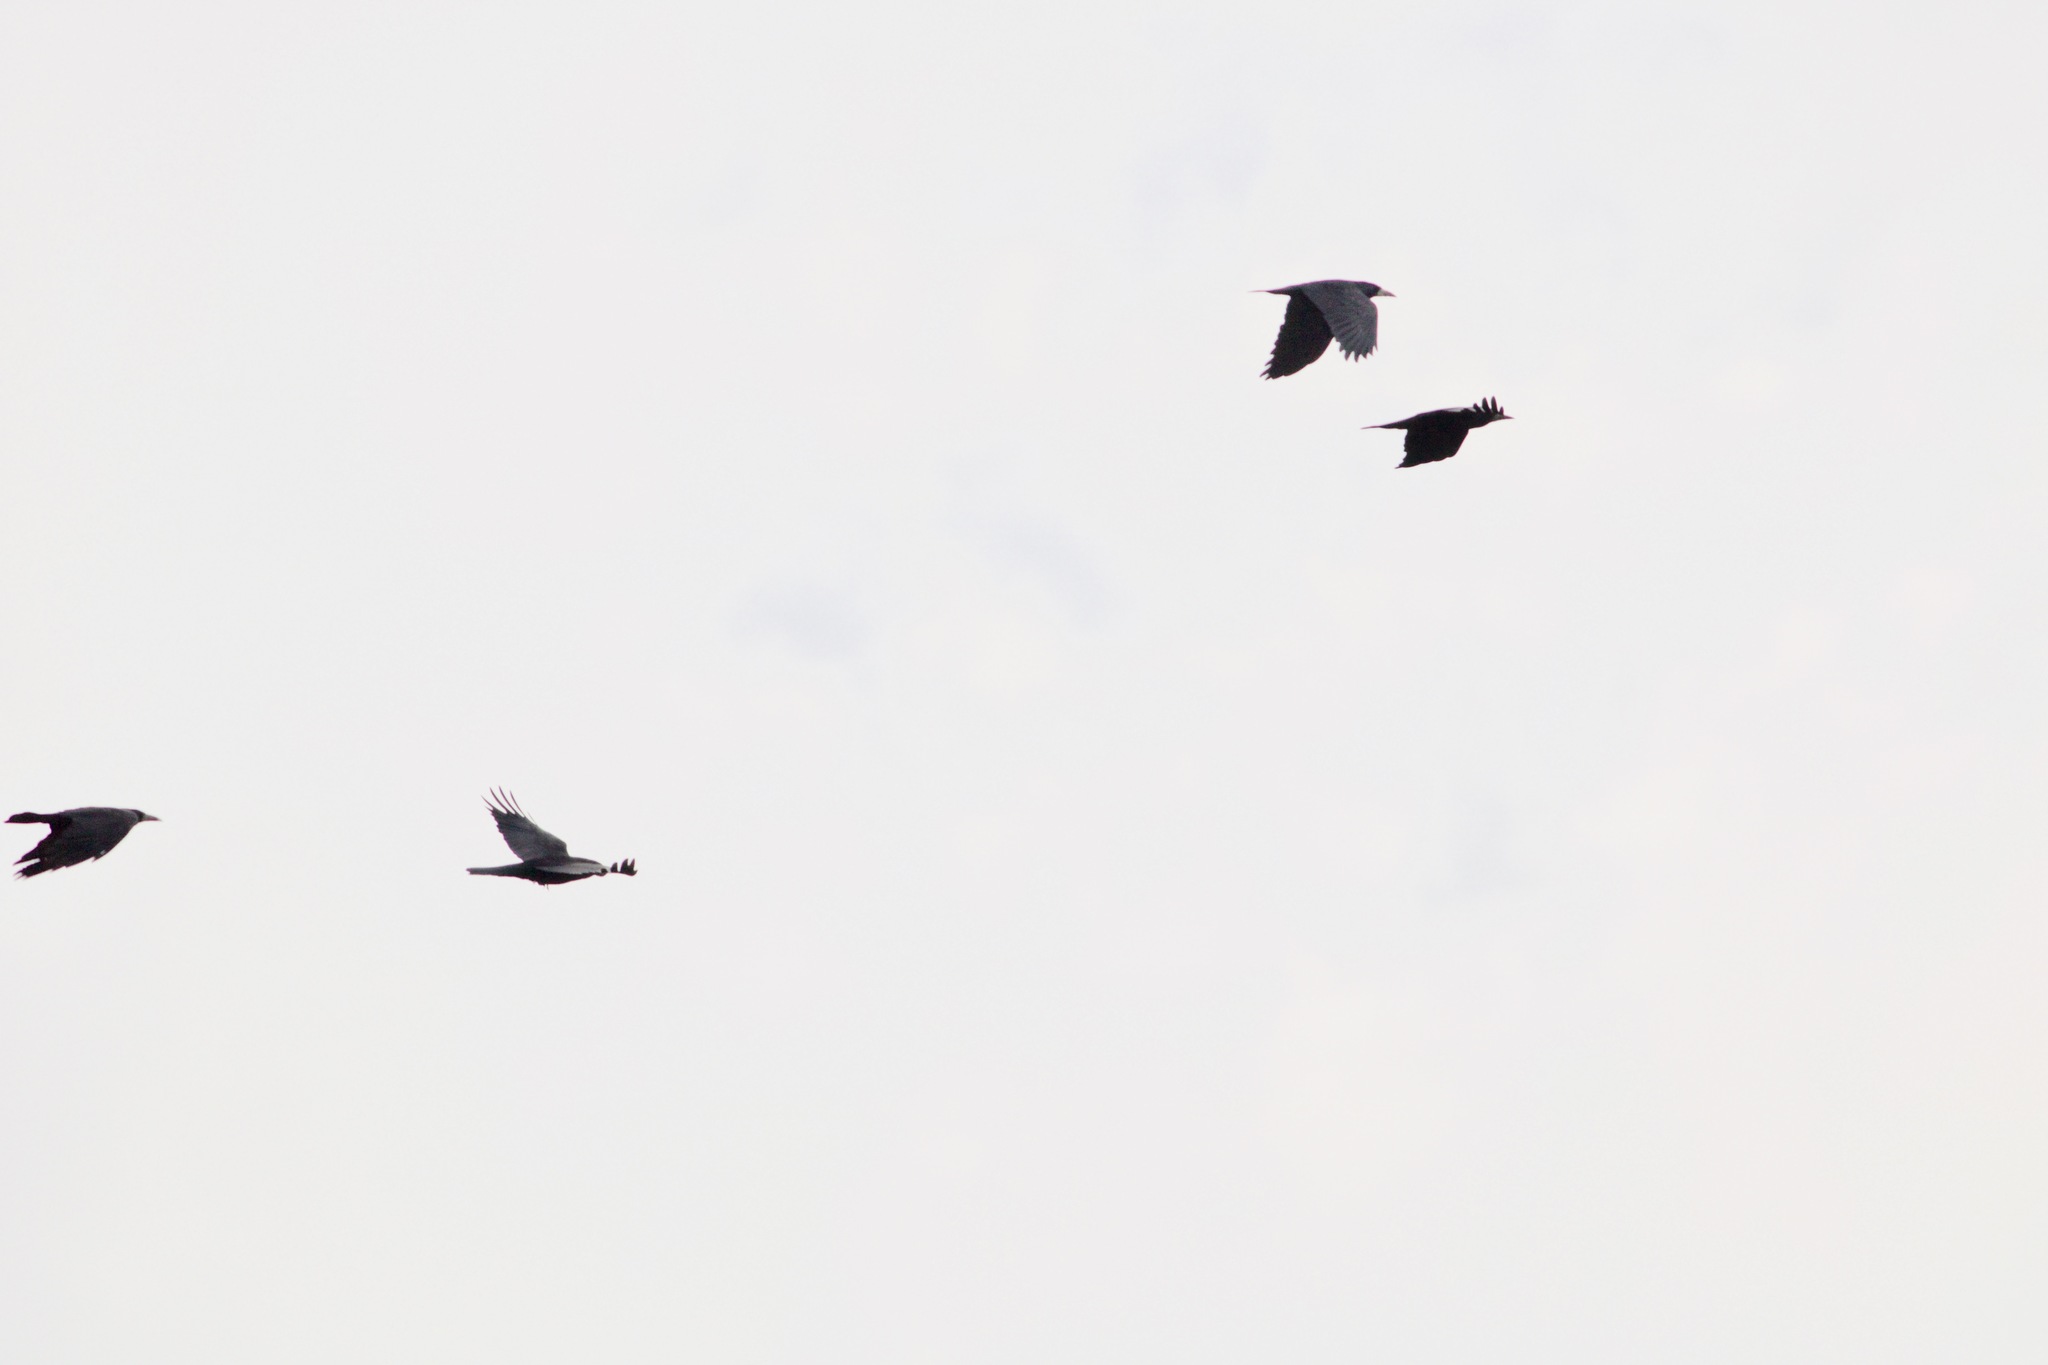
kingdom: Animalia
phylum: Chordata
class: Aves
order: Passeriformes
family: Corvidae
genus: Corvus
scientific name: Corvus frugilegus
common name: Rook
